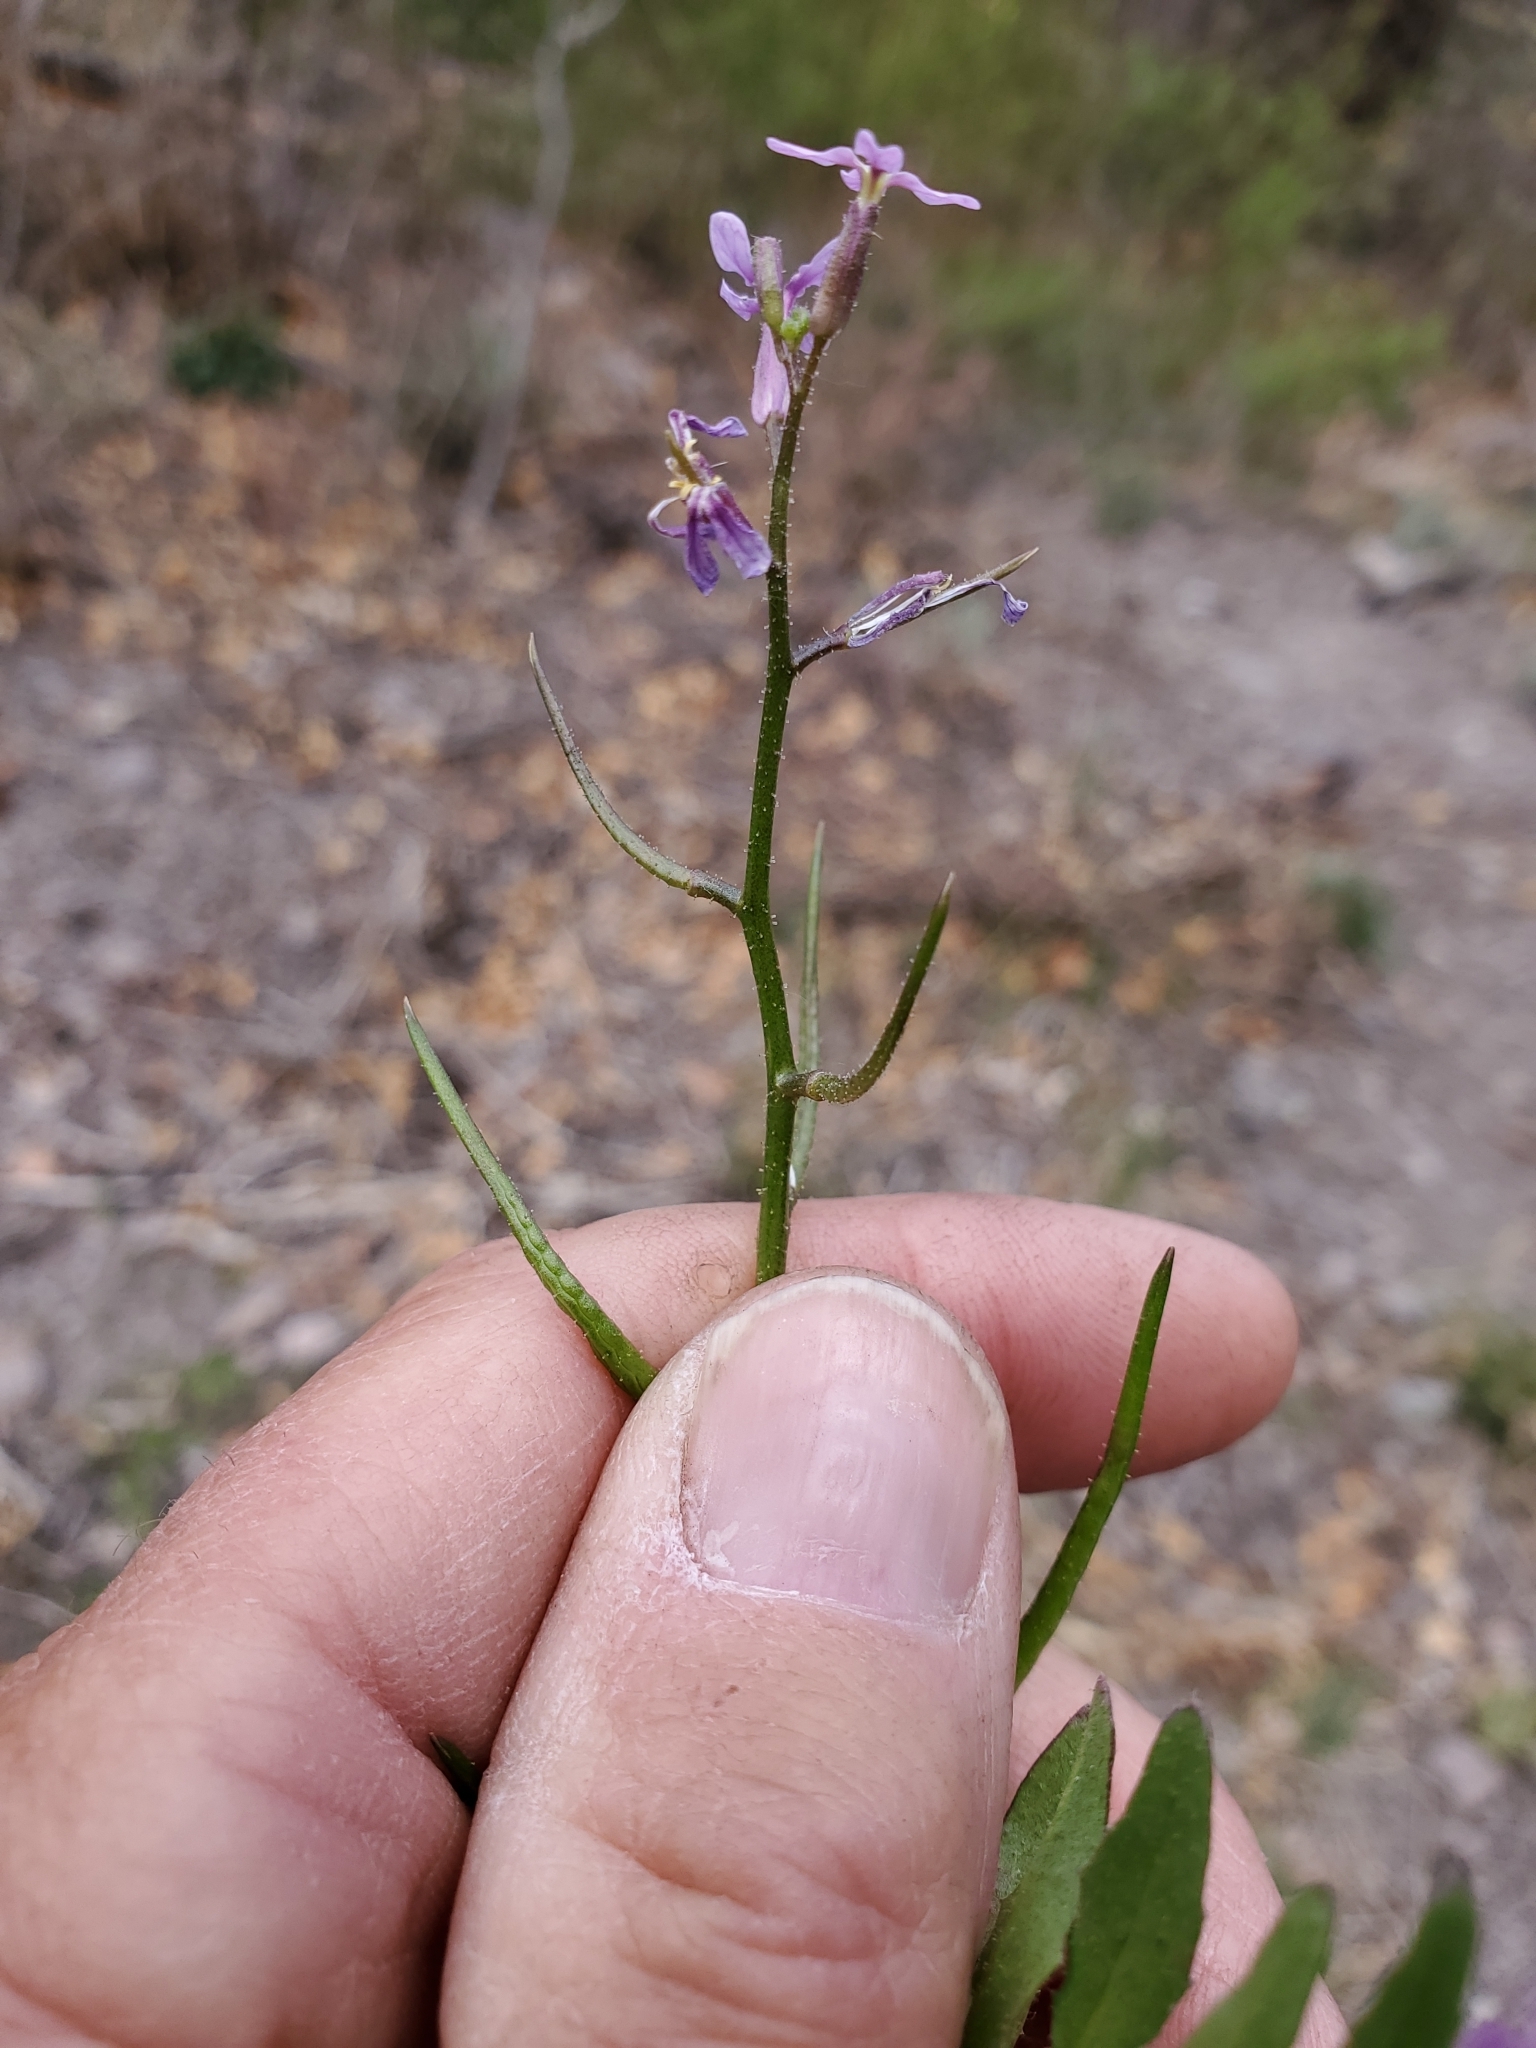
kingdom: Plantae
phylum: Tracheophyta
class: Magnoliopsida
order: Brassicales
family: Brassicaceae
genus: Chorispora
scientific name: Chorispora tenella
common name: Crossflower
